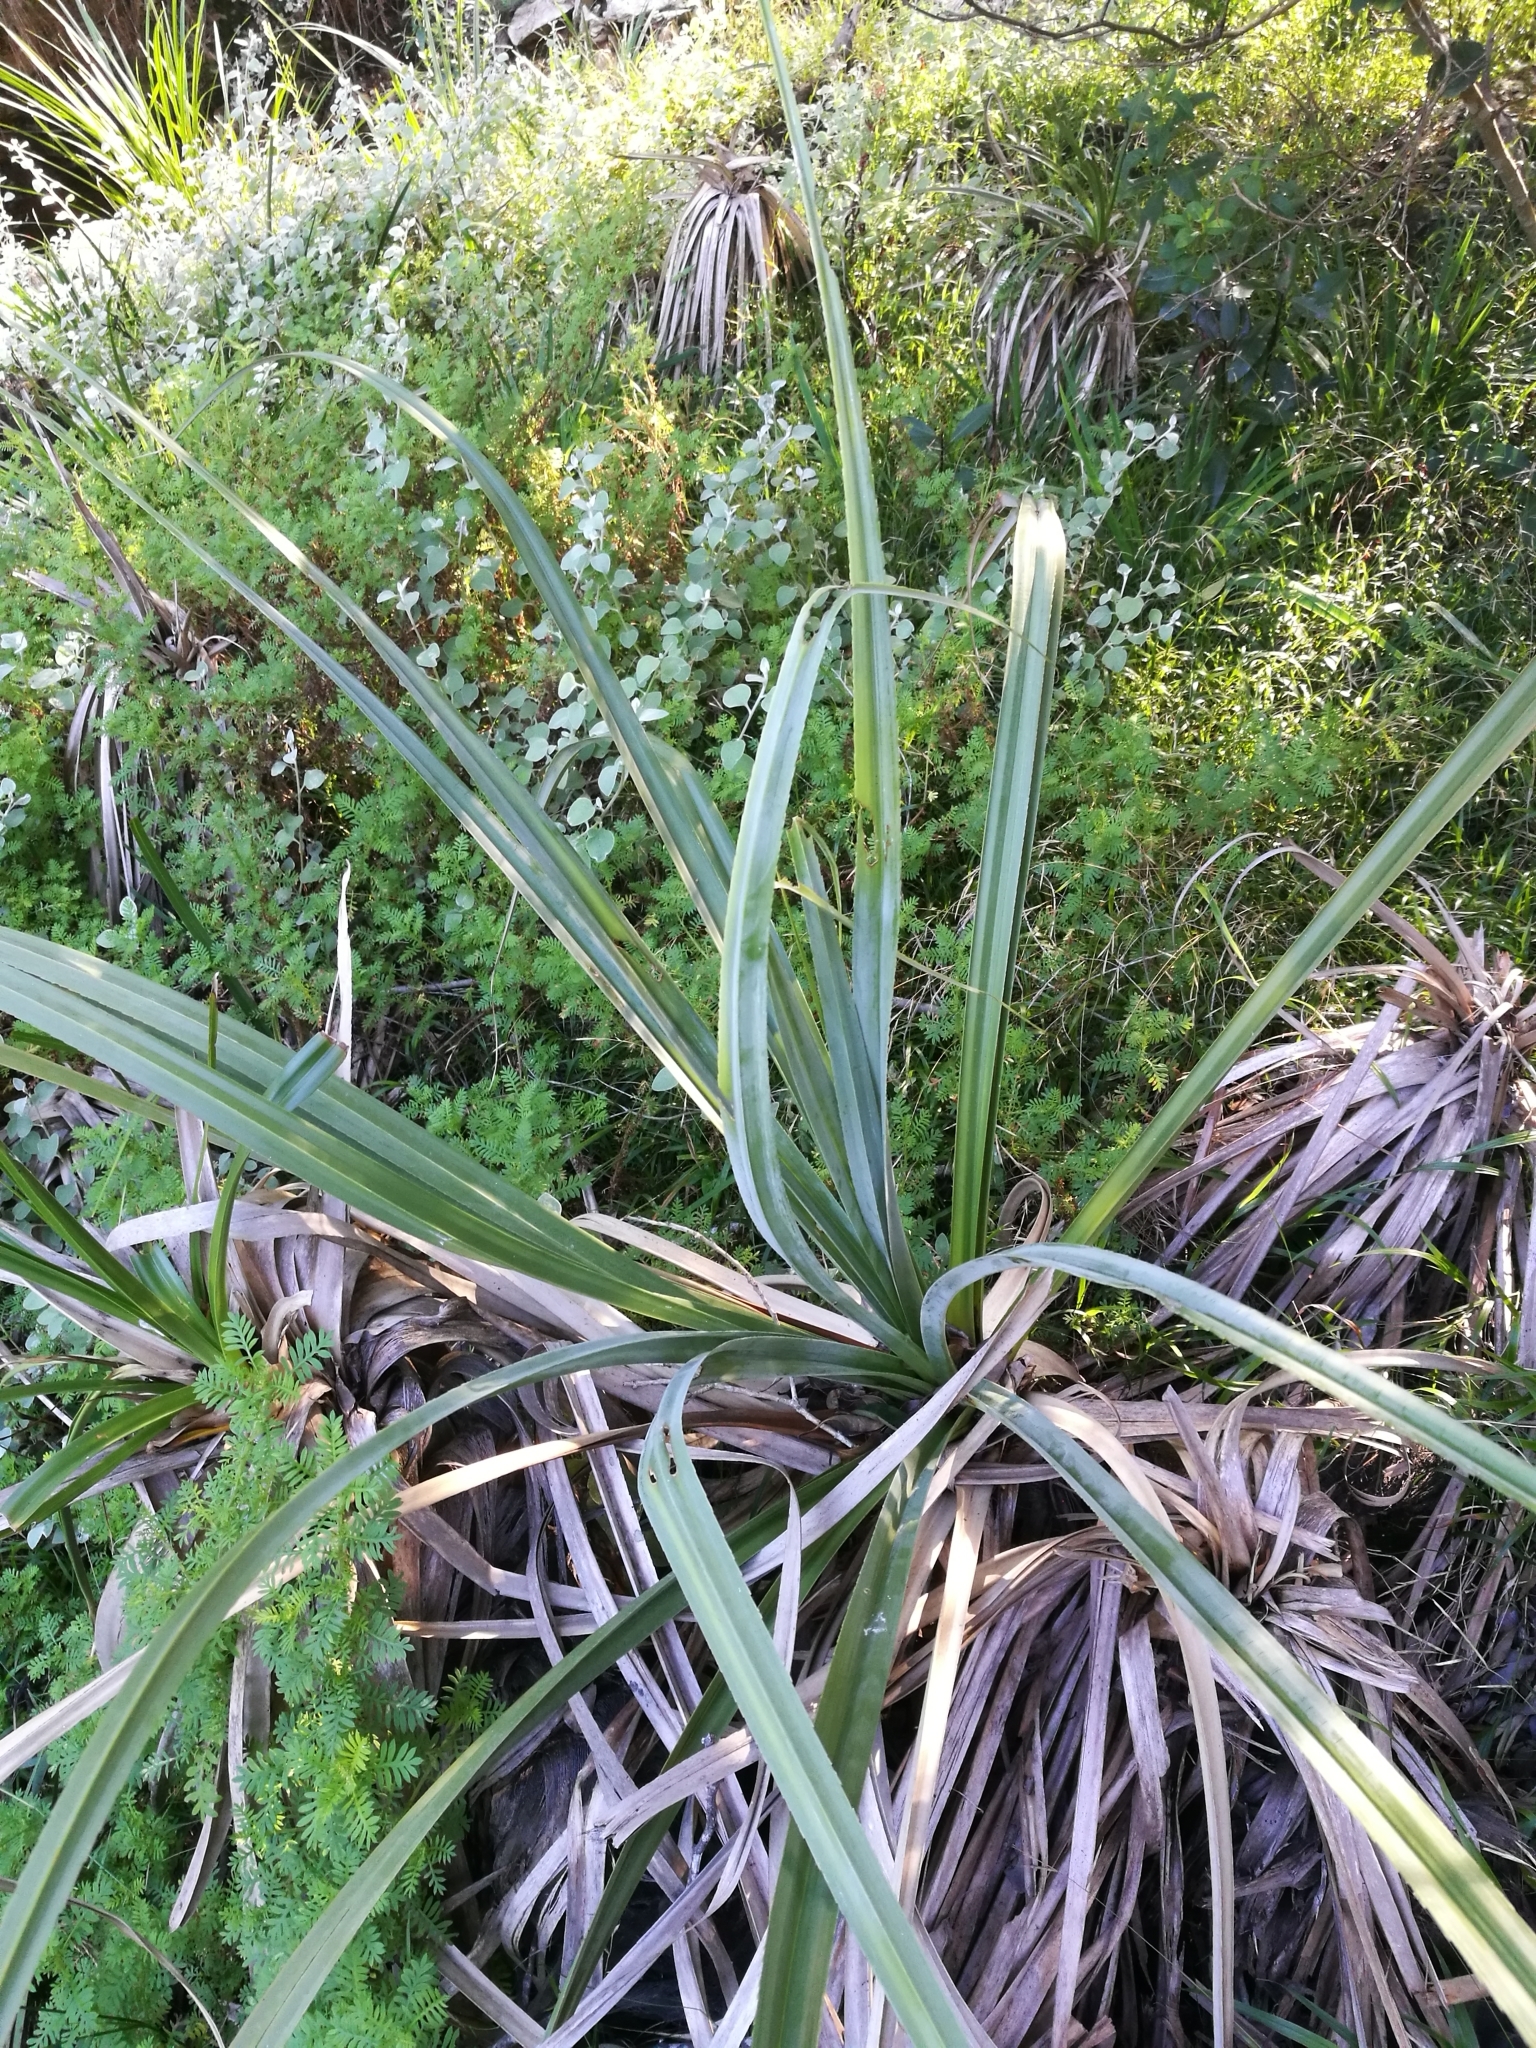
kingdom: Plantae
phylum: Tracheophyta
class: Liliopsida
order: Poales
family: Thurniaceae
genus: Prionium
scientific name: Prionium serratum
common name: Palmiet
